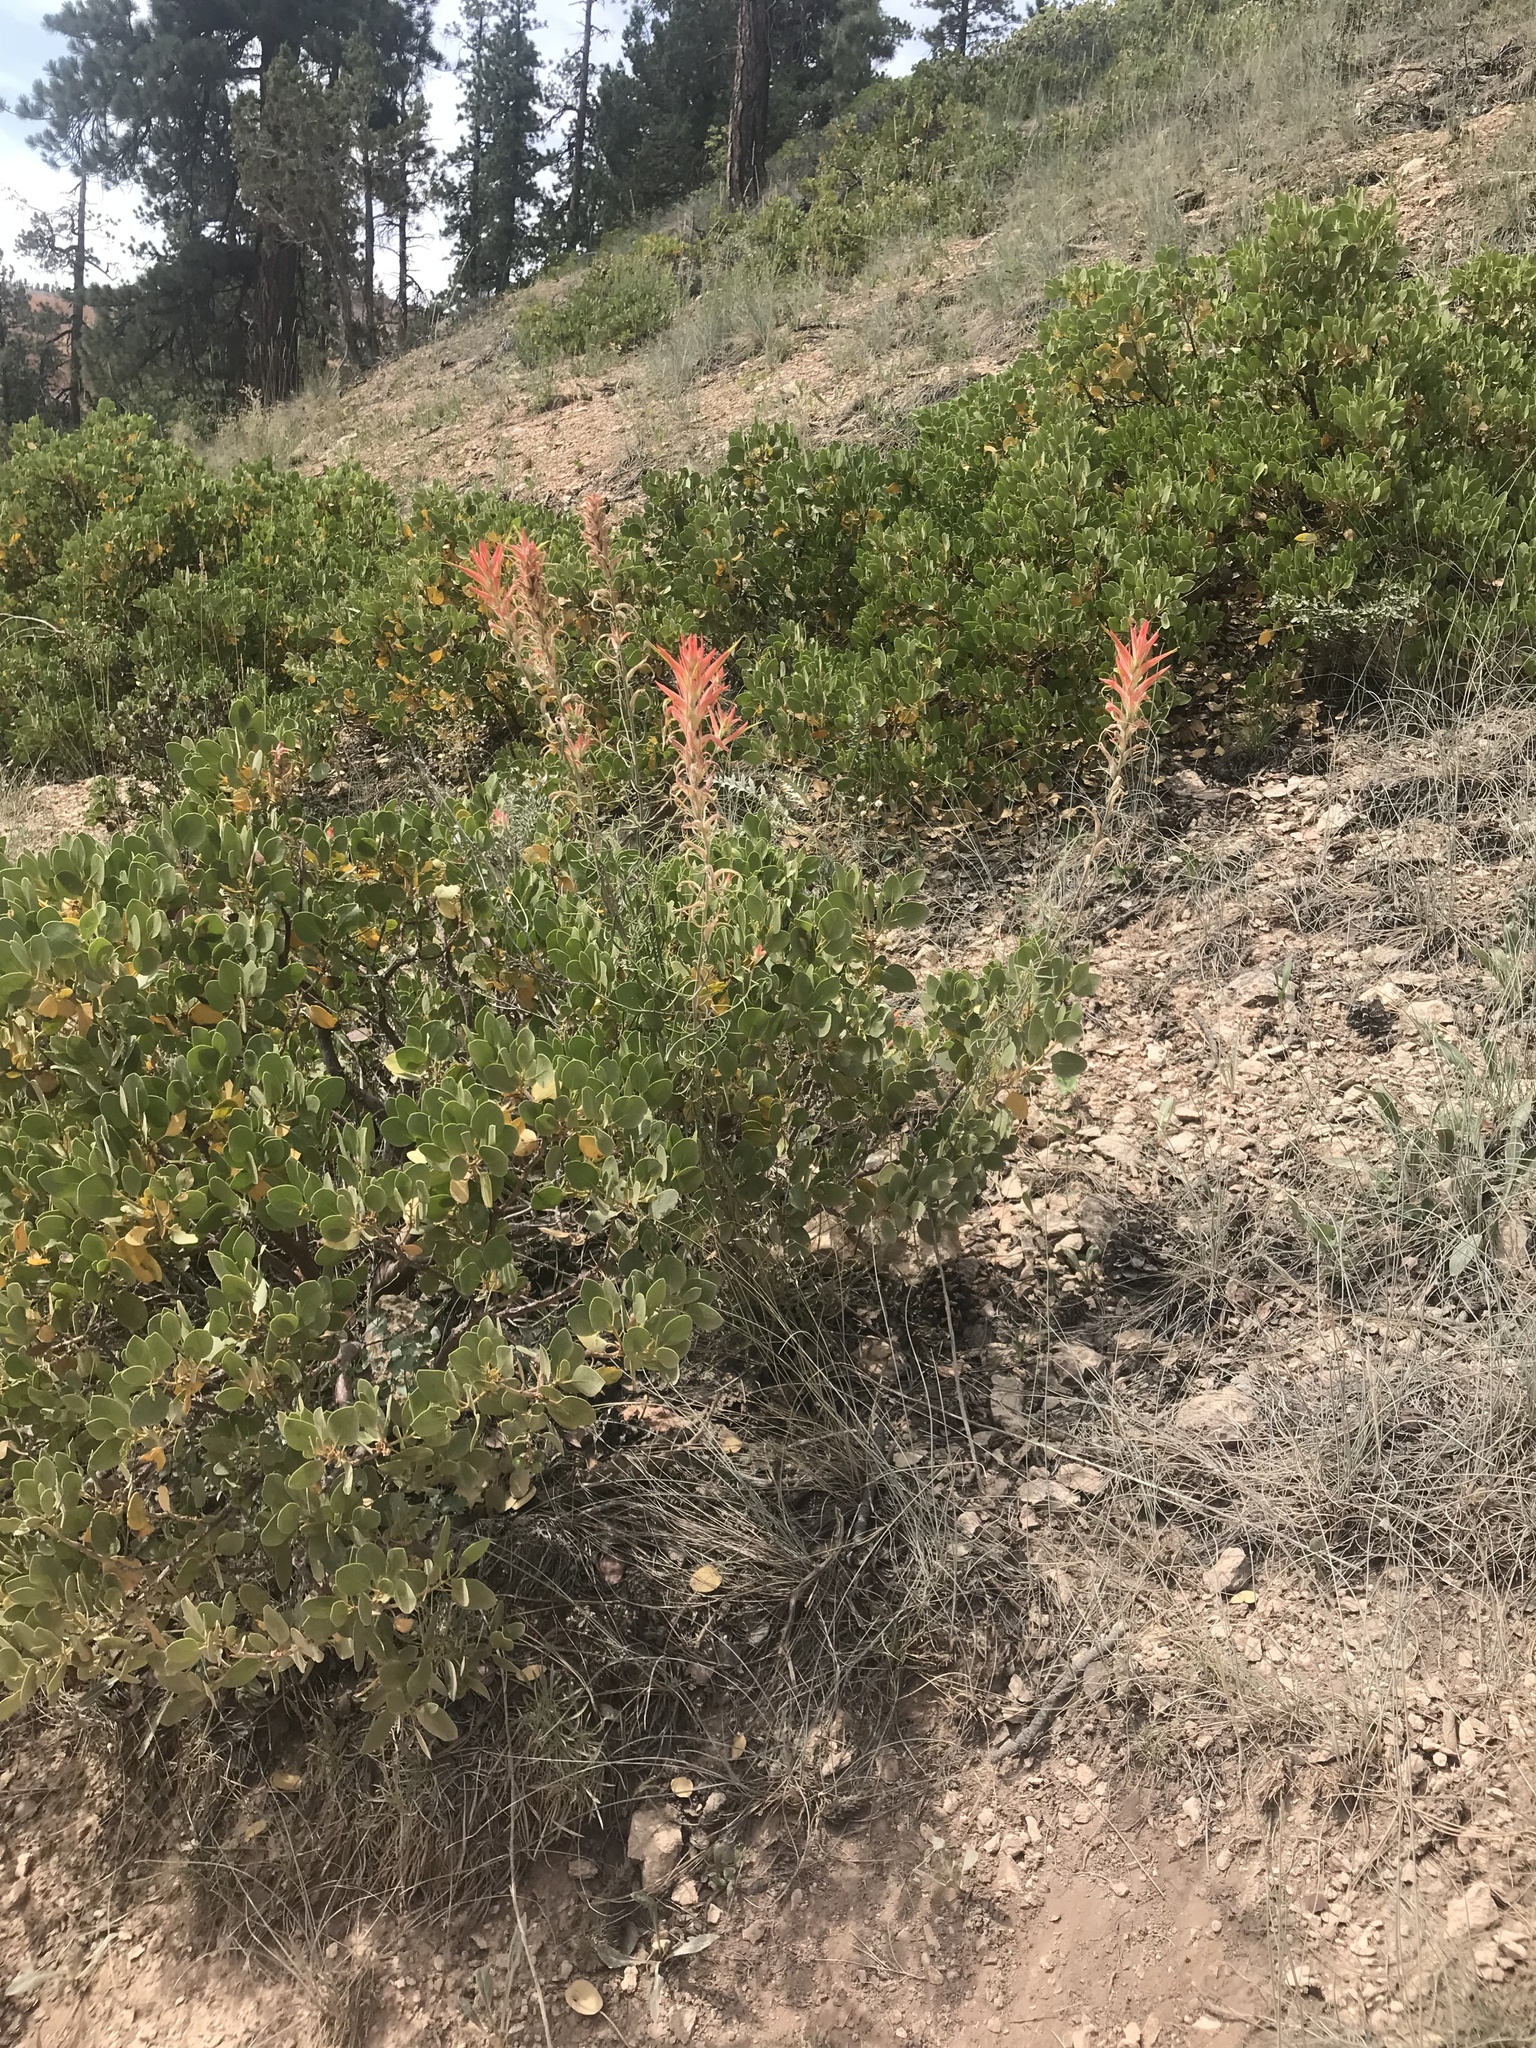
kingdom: Plantae
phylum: Tracheophyta
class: Magnoliopsida
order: Lamiales
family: Orobanchaceae
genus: Castilleja
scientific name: Castilleja linariifolia
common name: Wyoming paintbrush
